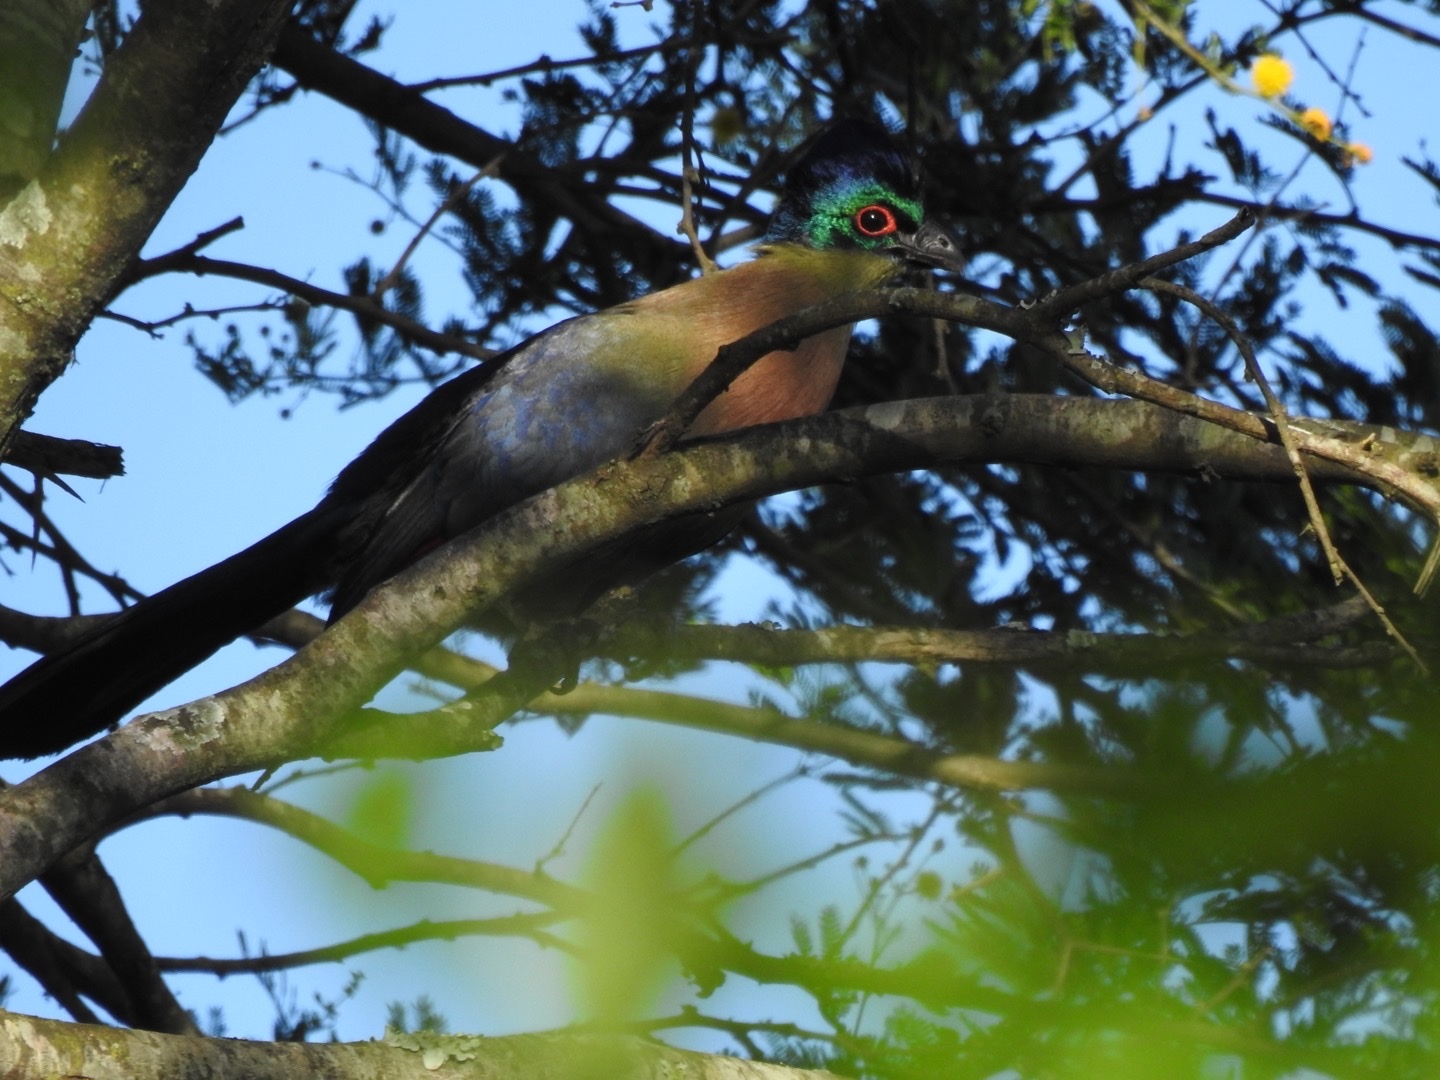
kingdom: Animalia
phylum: Chordata
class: Aves
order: Musophagiformes
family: Musophagidae
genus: Tauraco
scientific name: Tauraco porphyreolophus
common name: Purple-crested turaco
